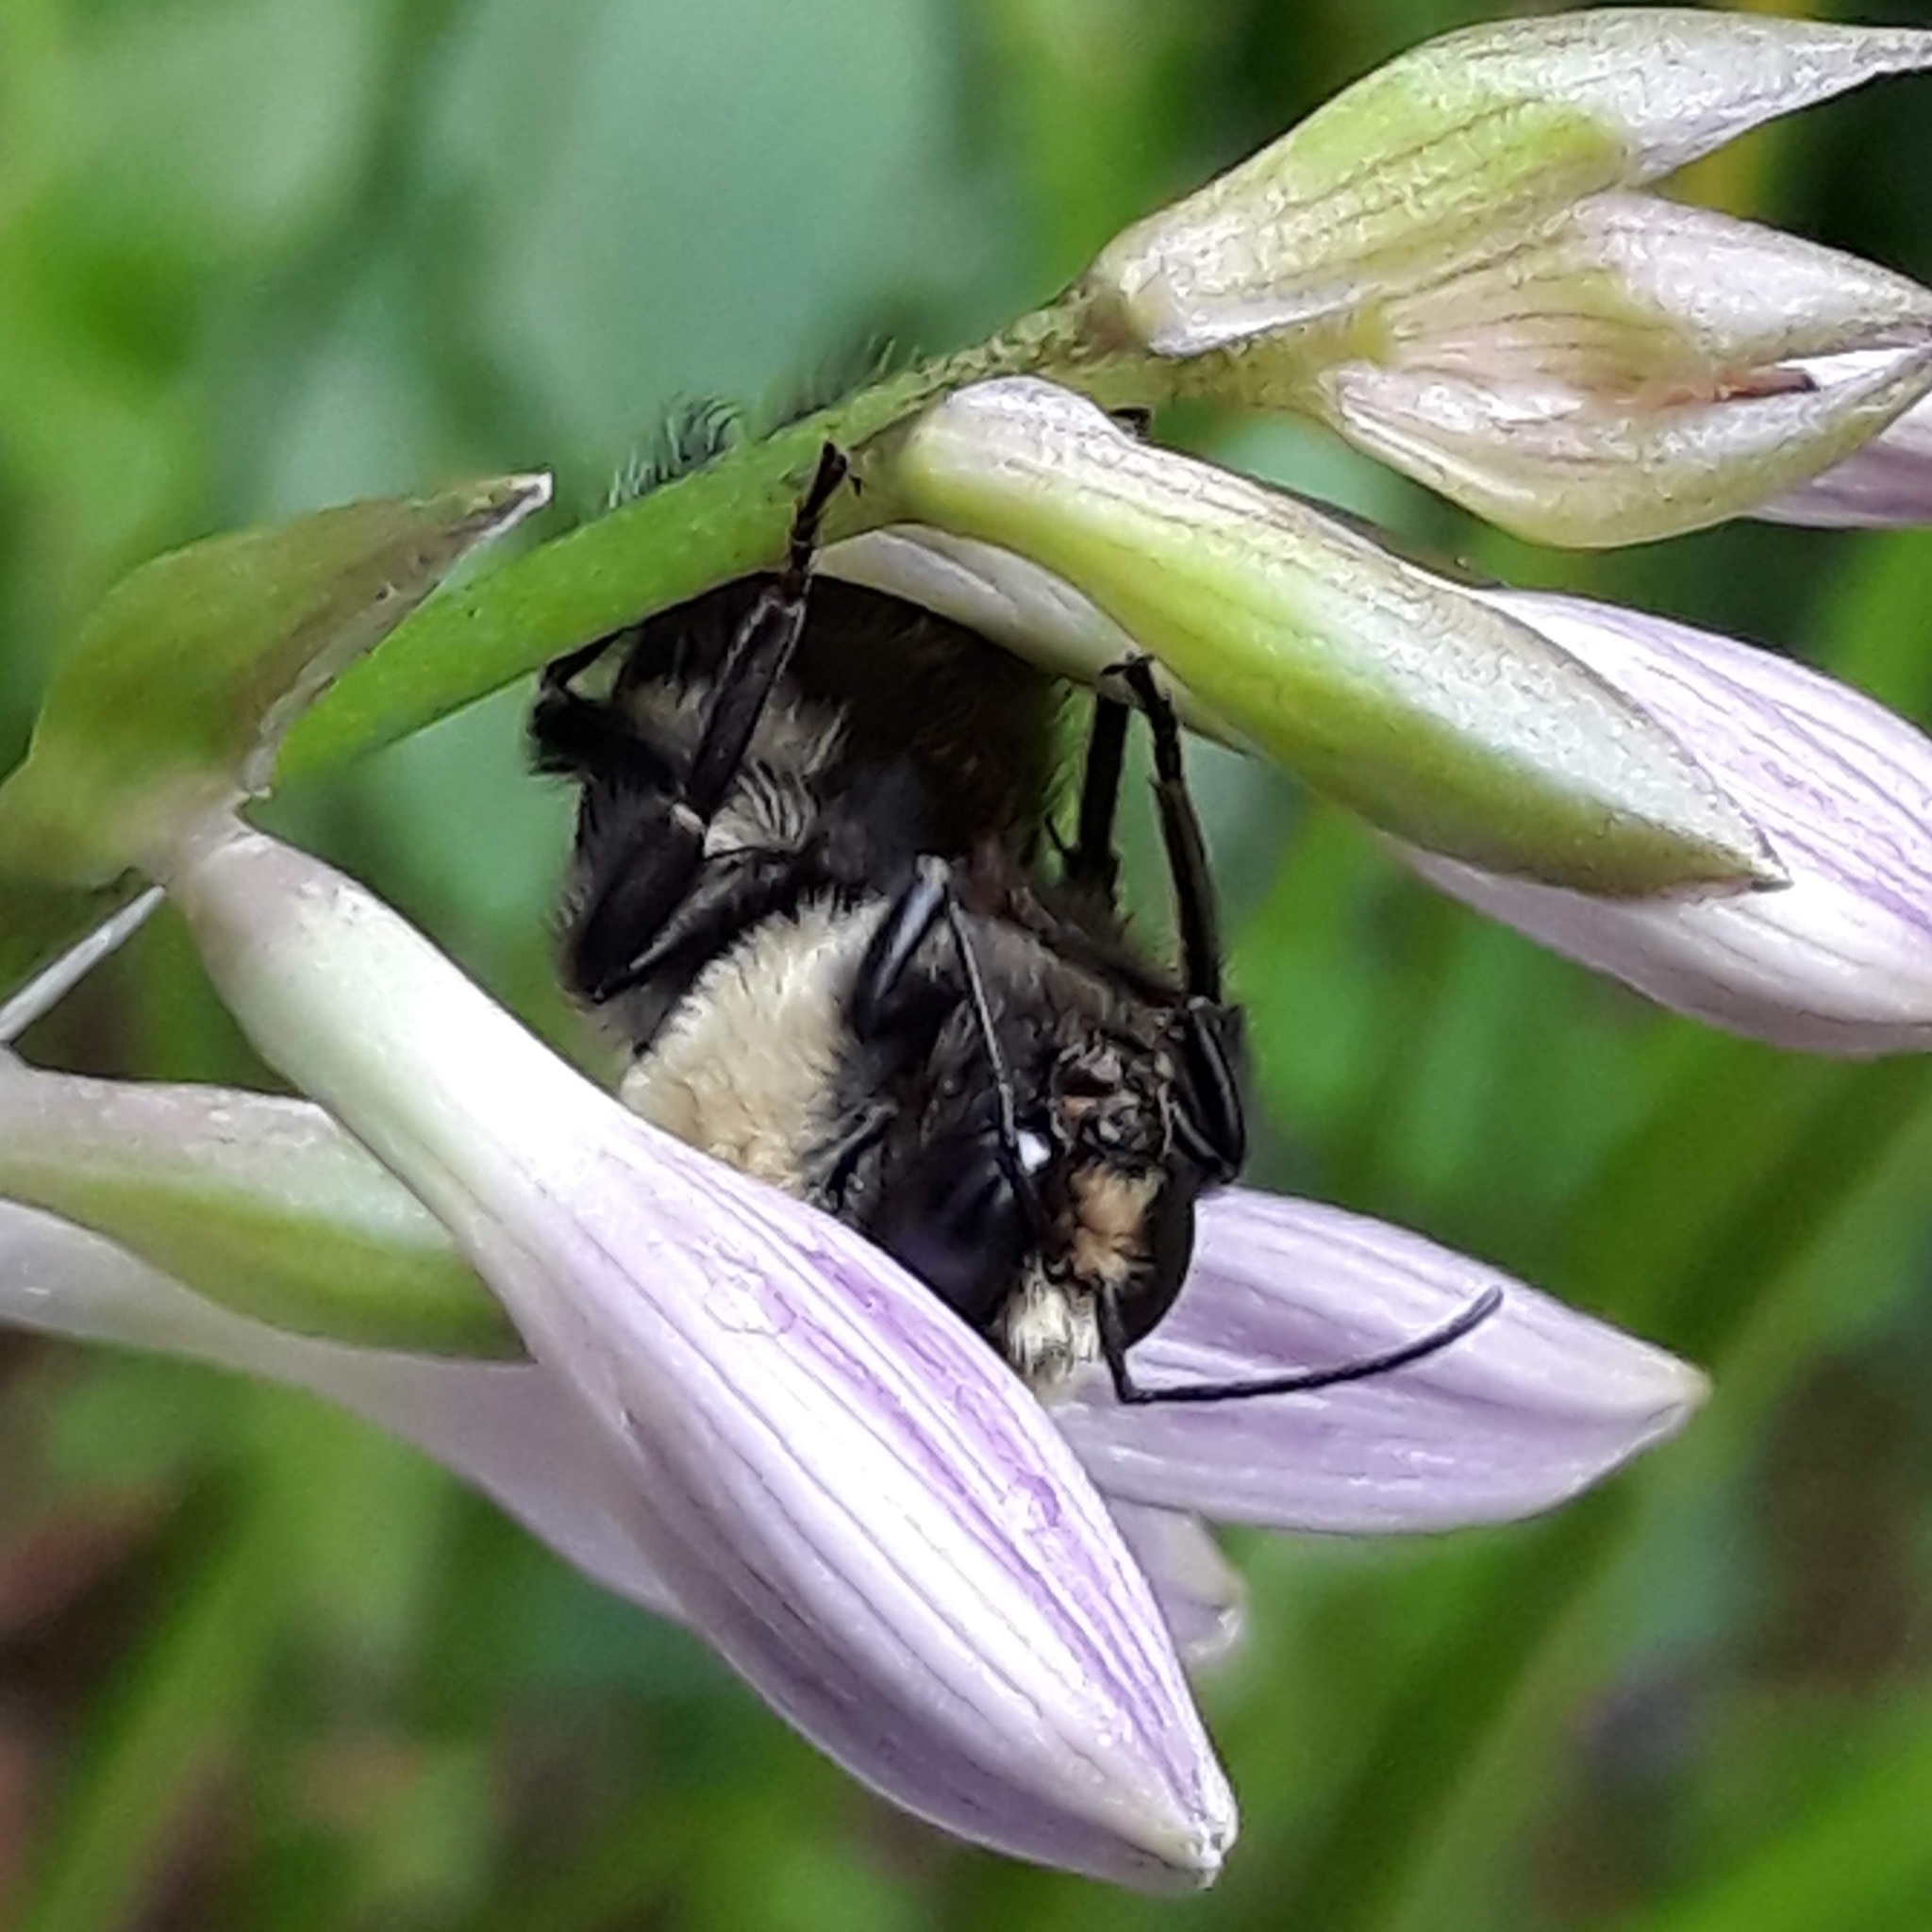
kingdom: Animalia
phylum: Arthropoda
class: Insecta
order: Hymenoptera
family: Apidae
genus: Bombus
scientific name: Bombus
